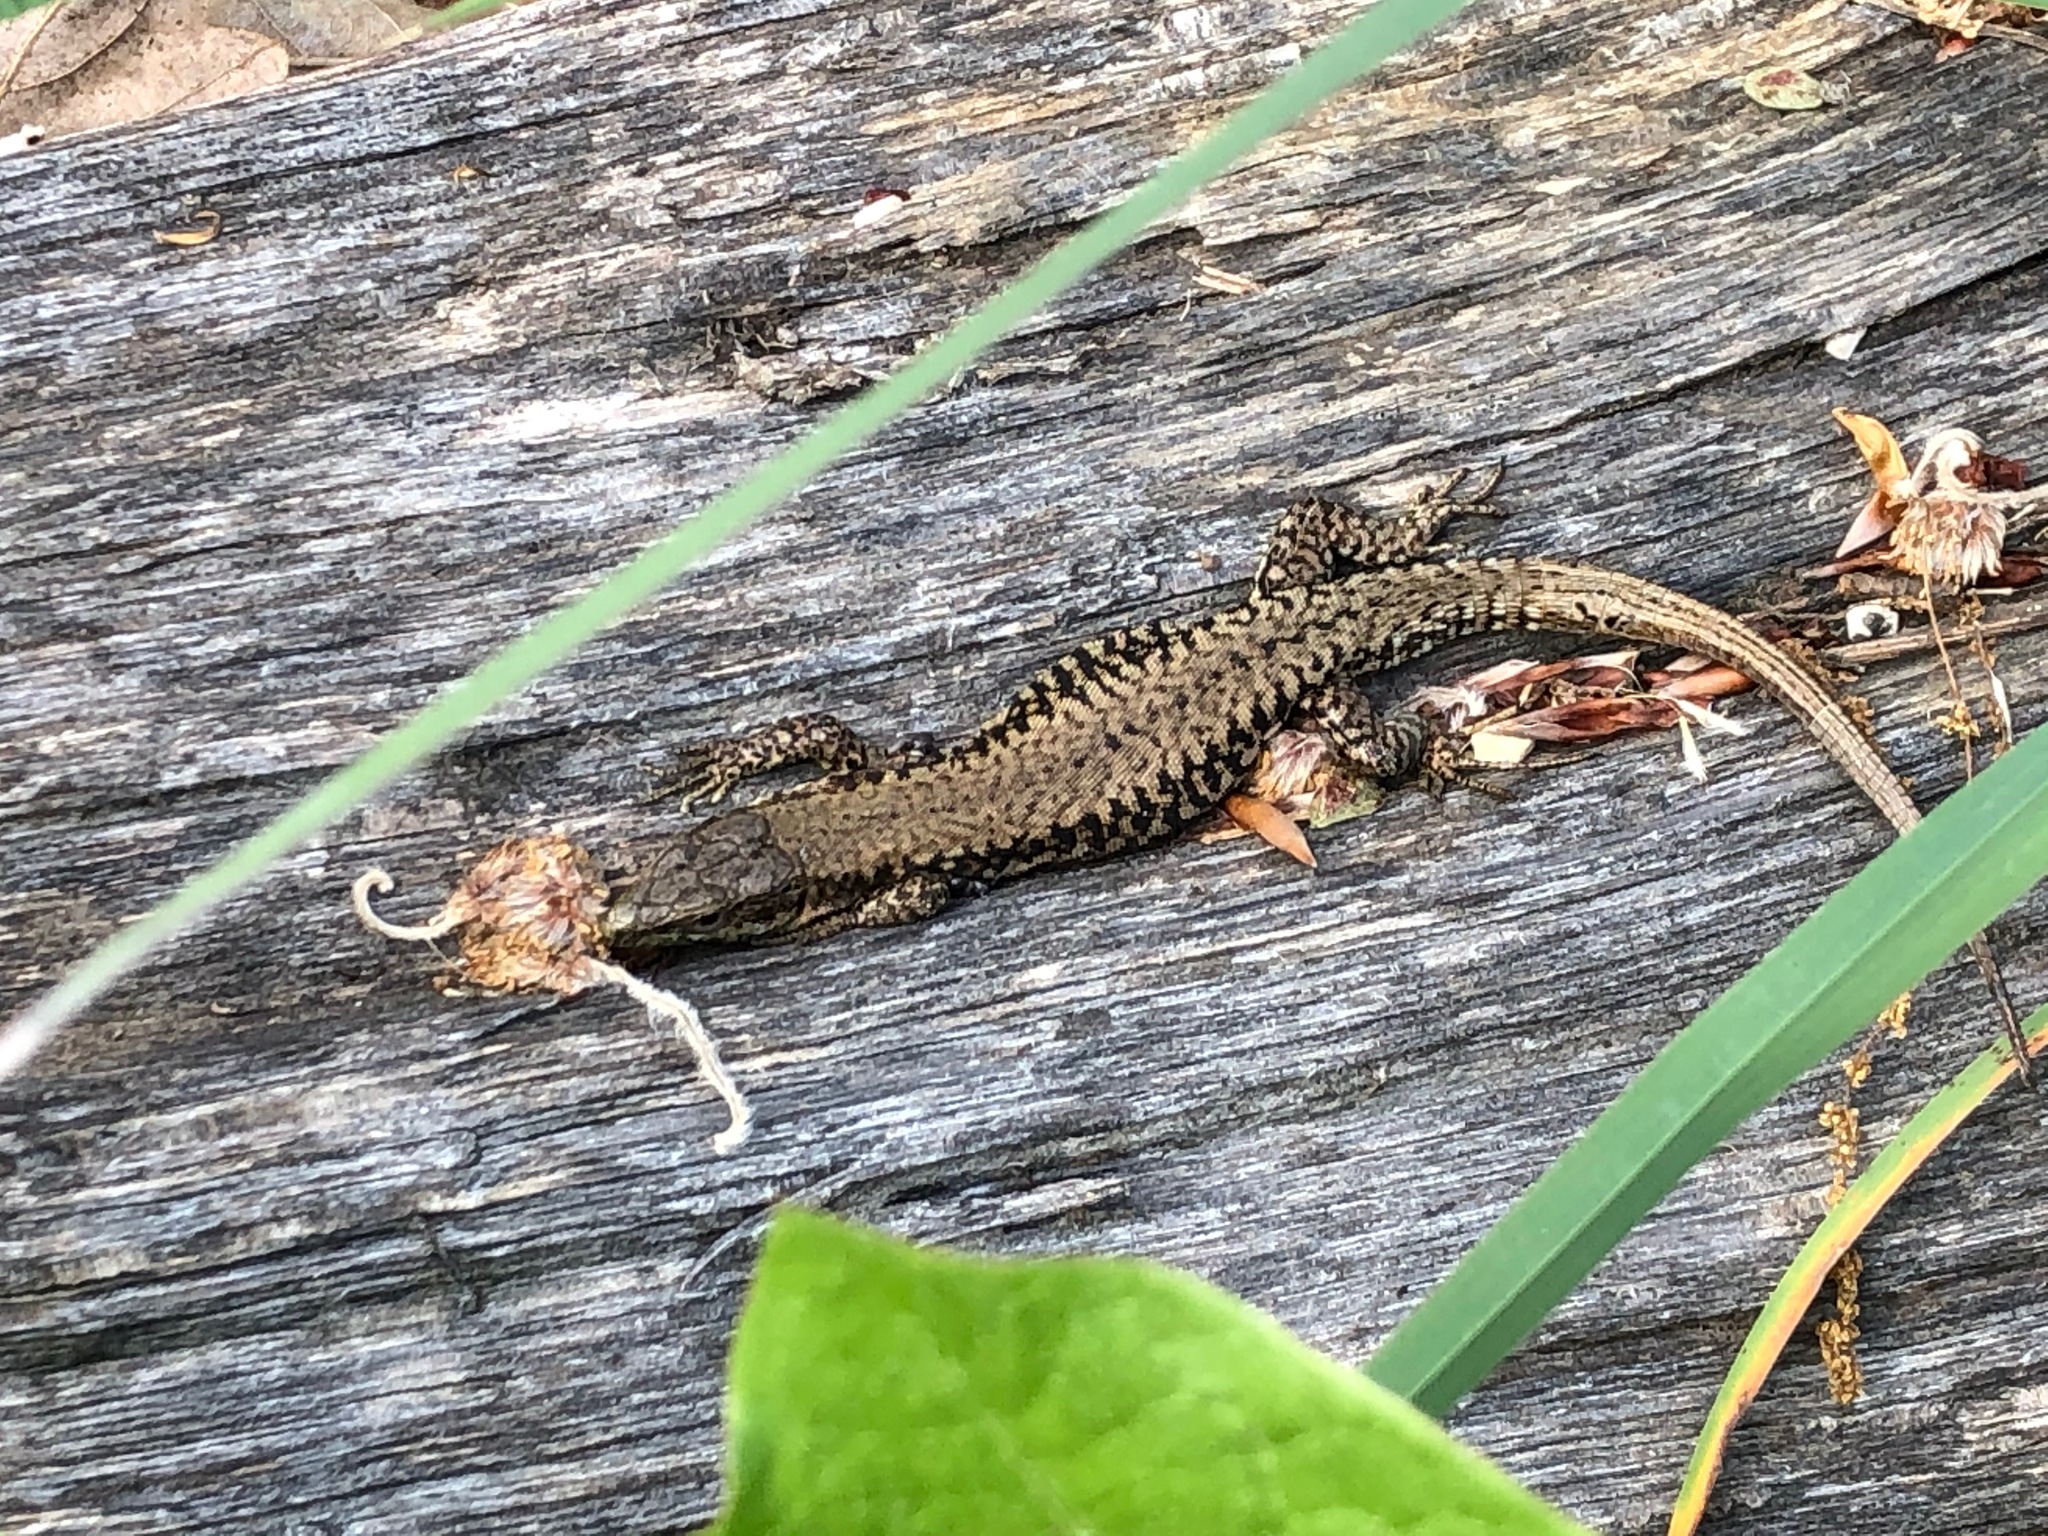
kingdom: Animalia
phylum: Chordata
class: Squamata
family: Lacertidae
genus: Podarcis
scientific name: Podarcis muralis
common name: Common wall lizard
